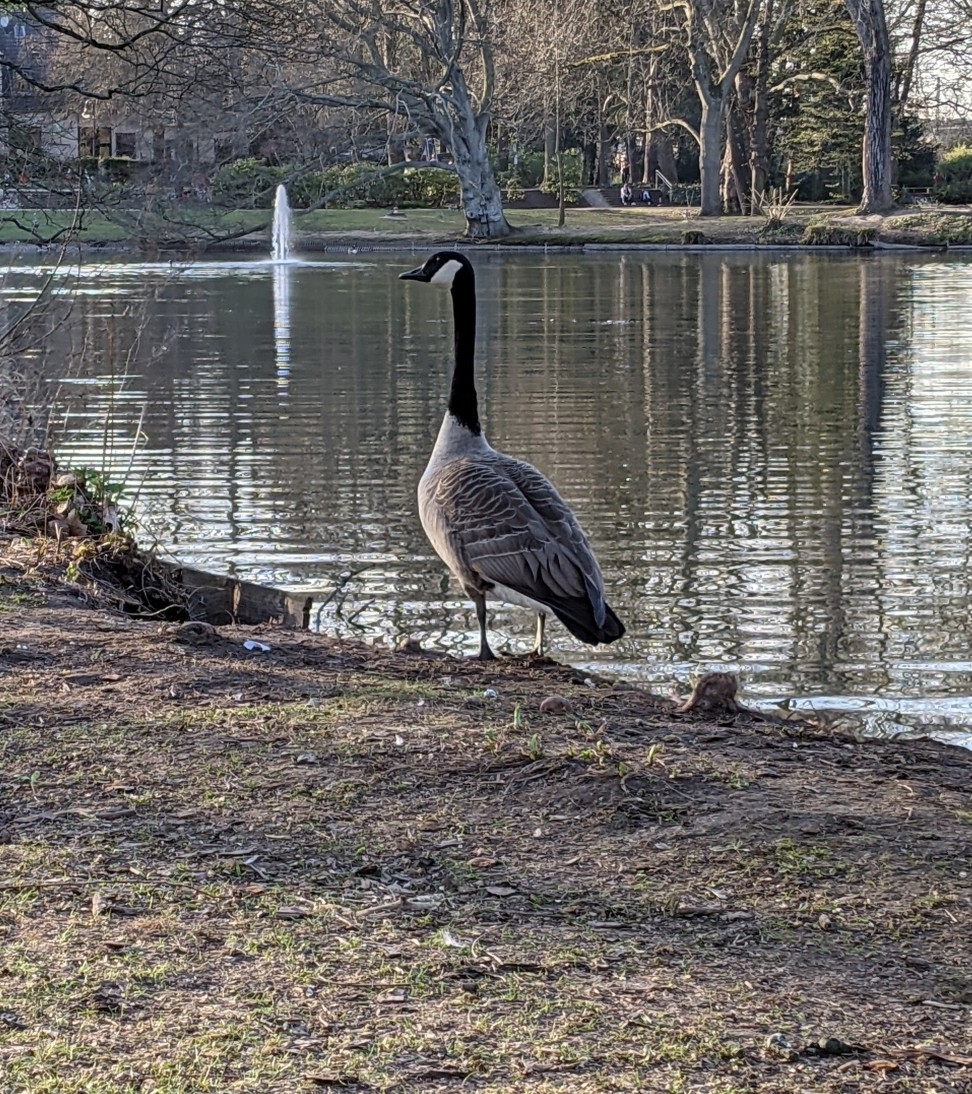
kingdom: Animalia
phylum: Chordata
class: Aves
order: Anseriformes
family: Anatidae
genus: Branta
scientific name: Branta canadensis
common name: Canada goose
